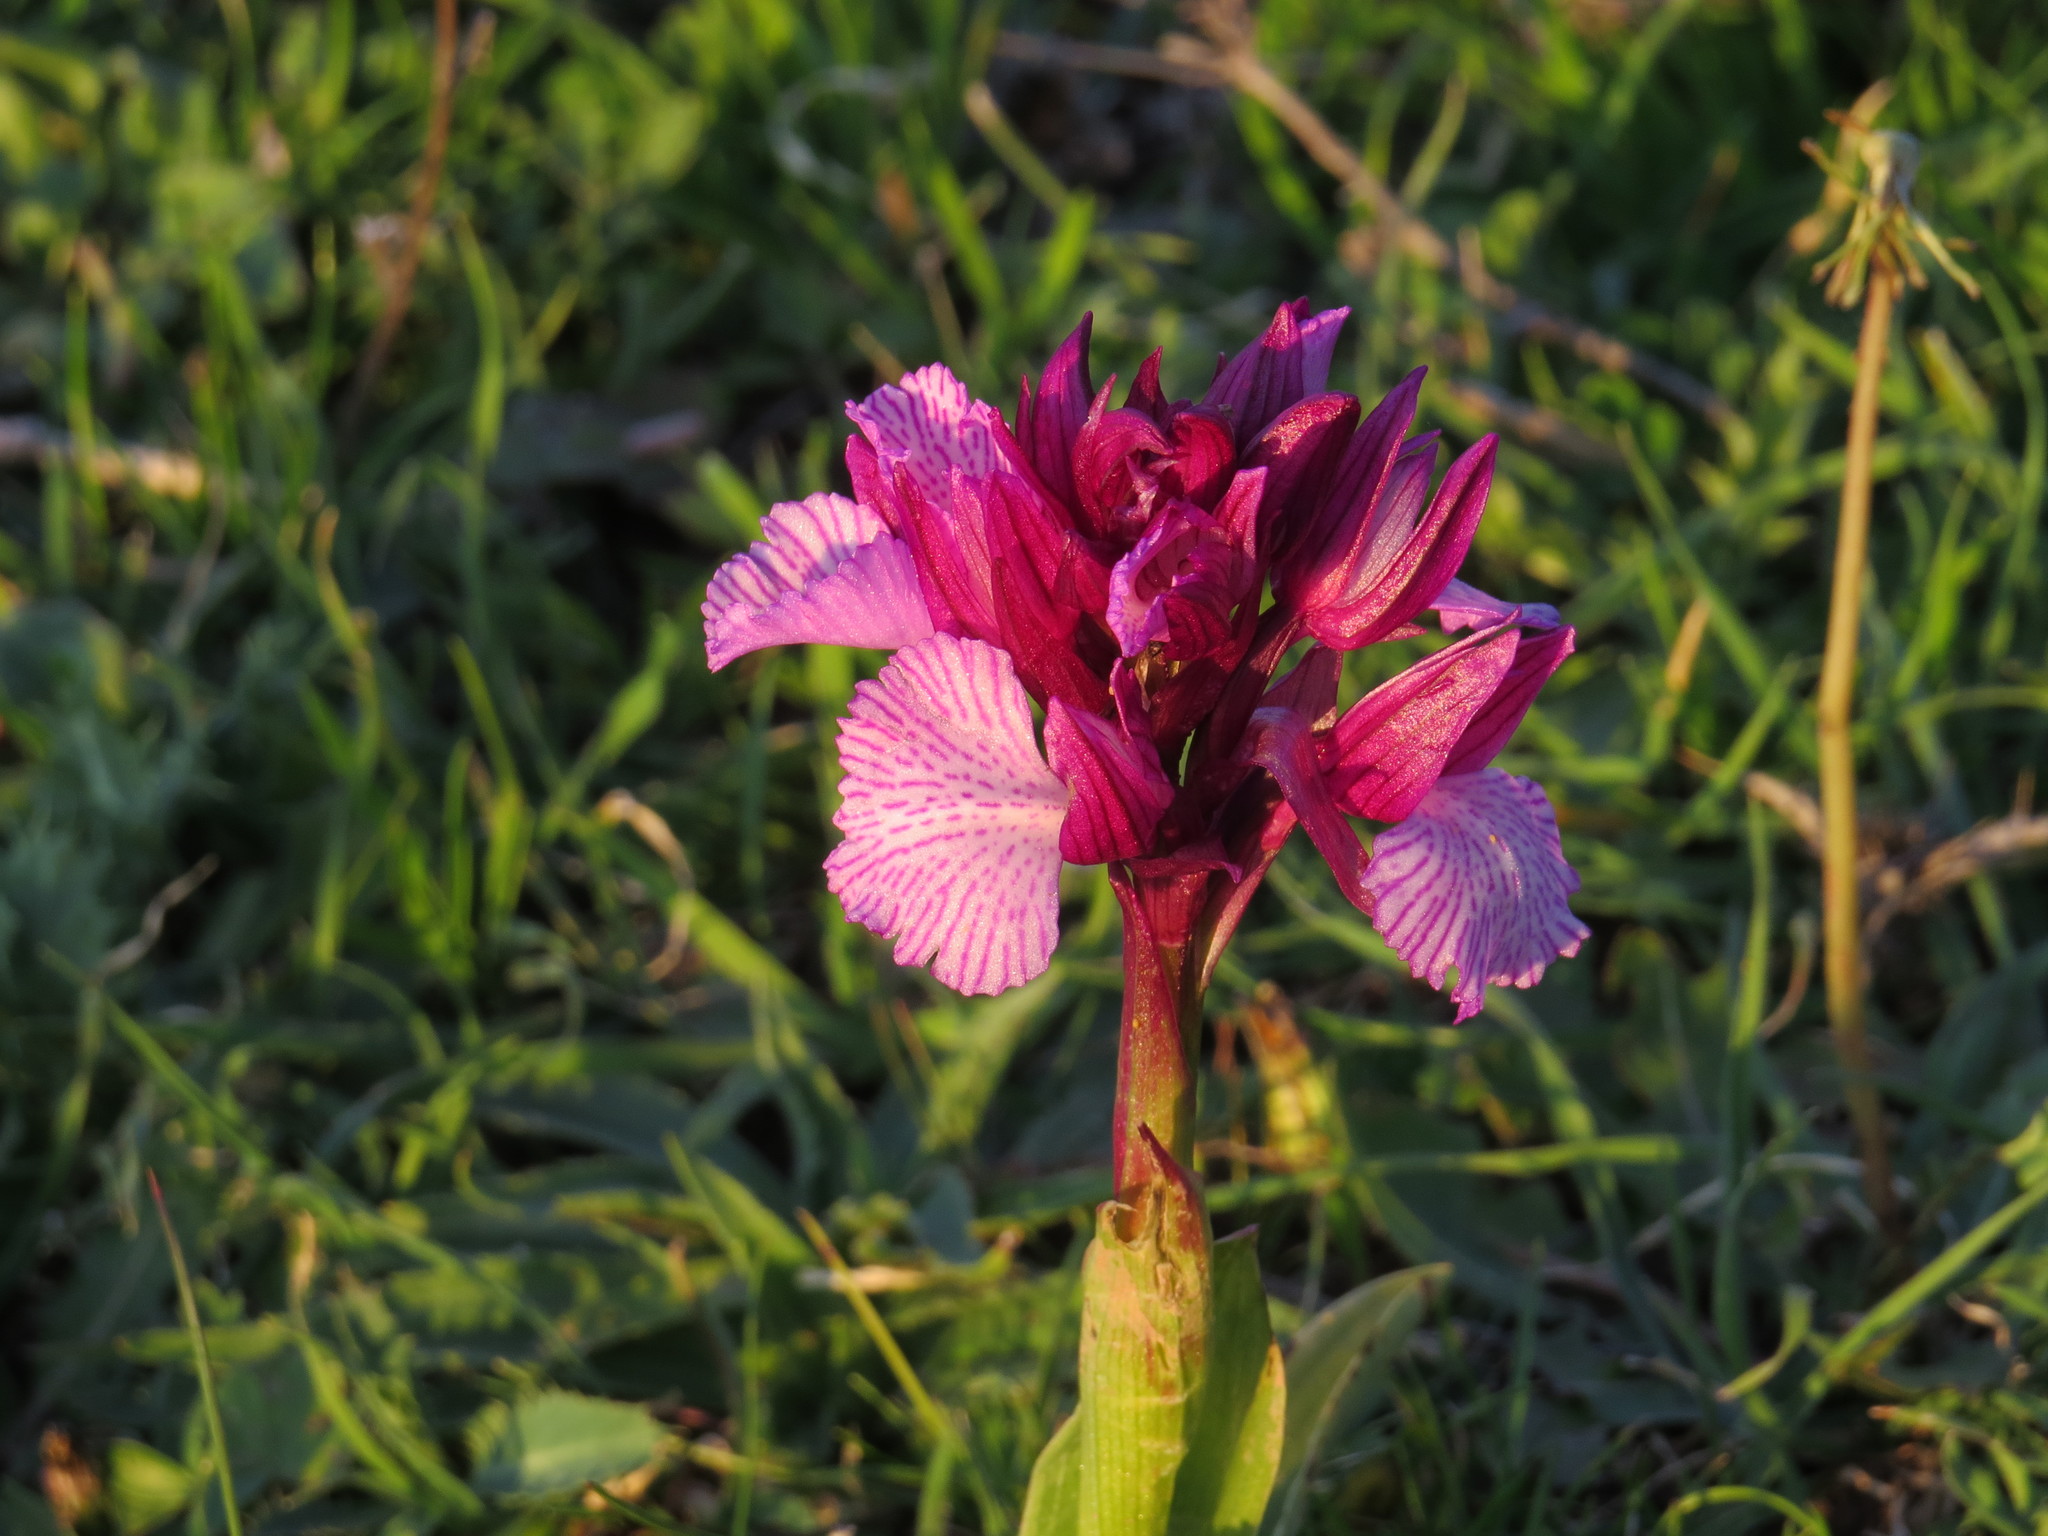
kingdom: Plantae
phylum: Tracheophyta
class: Liliopsida
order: Asparagales
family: Orchidaceae
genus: Anacamptis
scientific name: Anacamptis papilionacea
